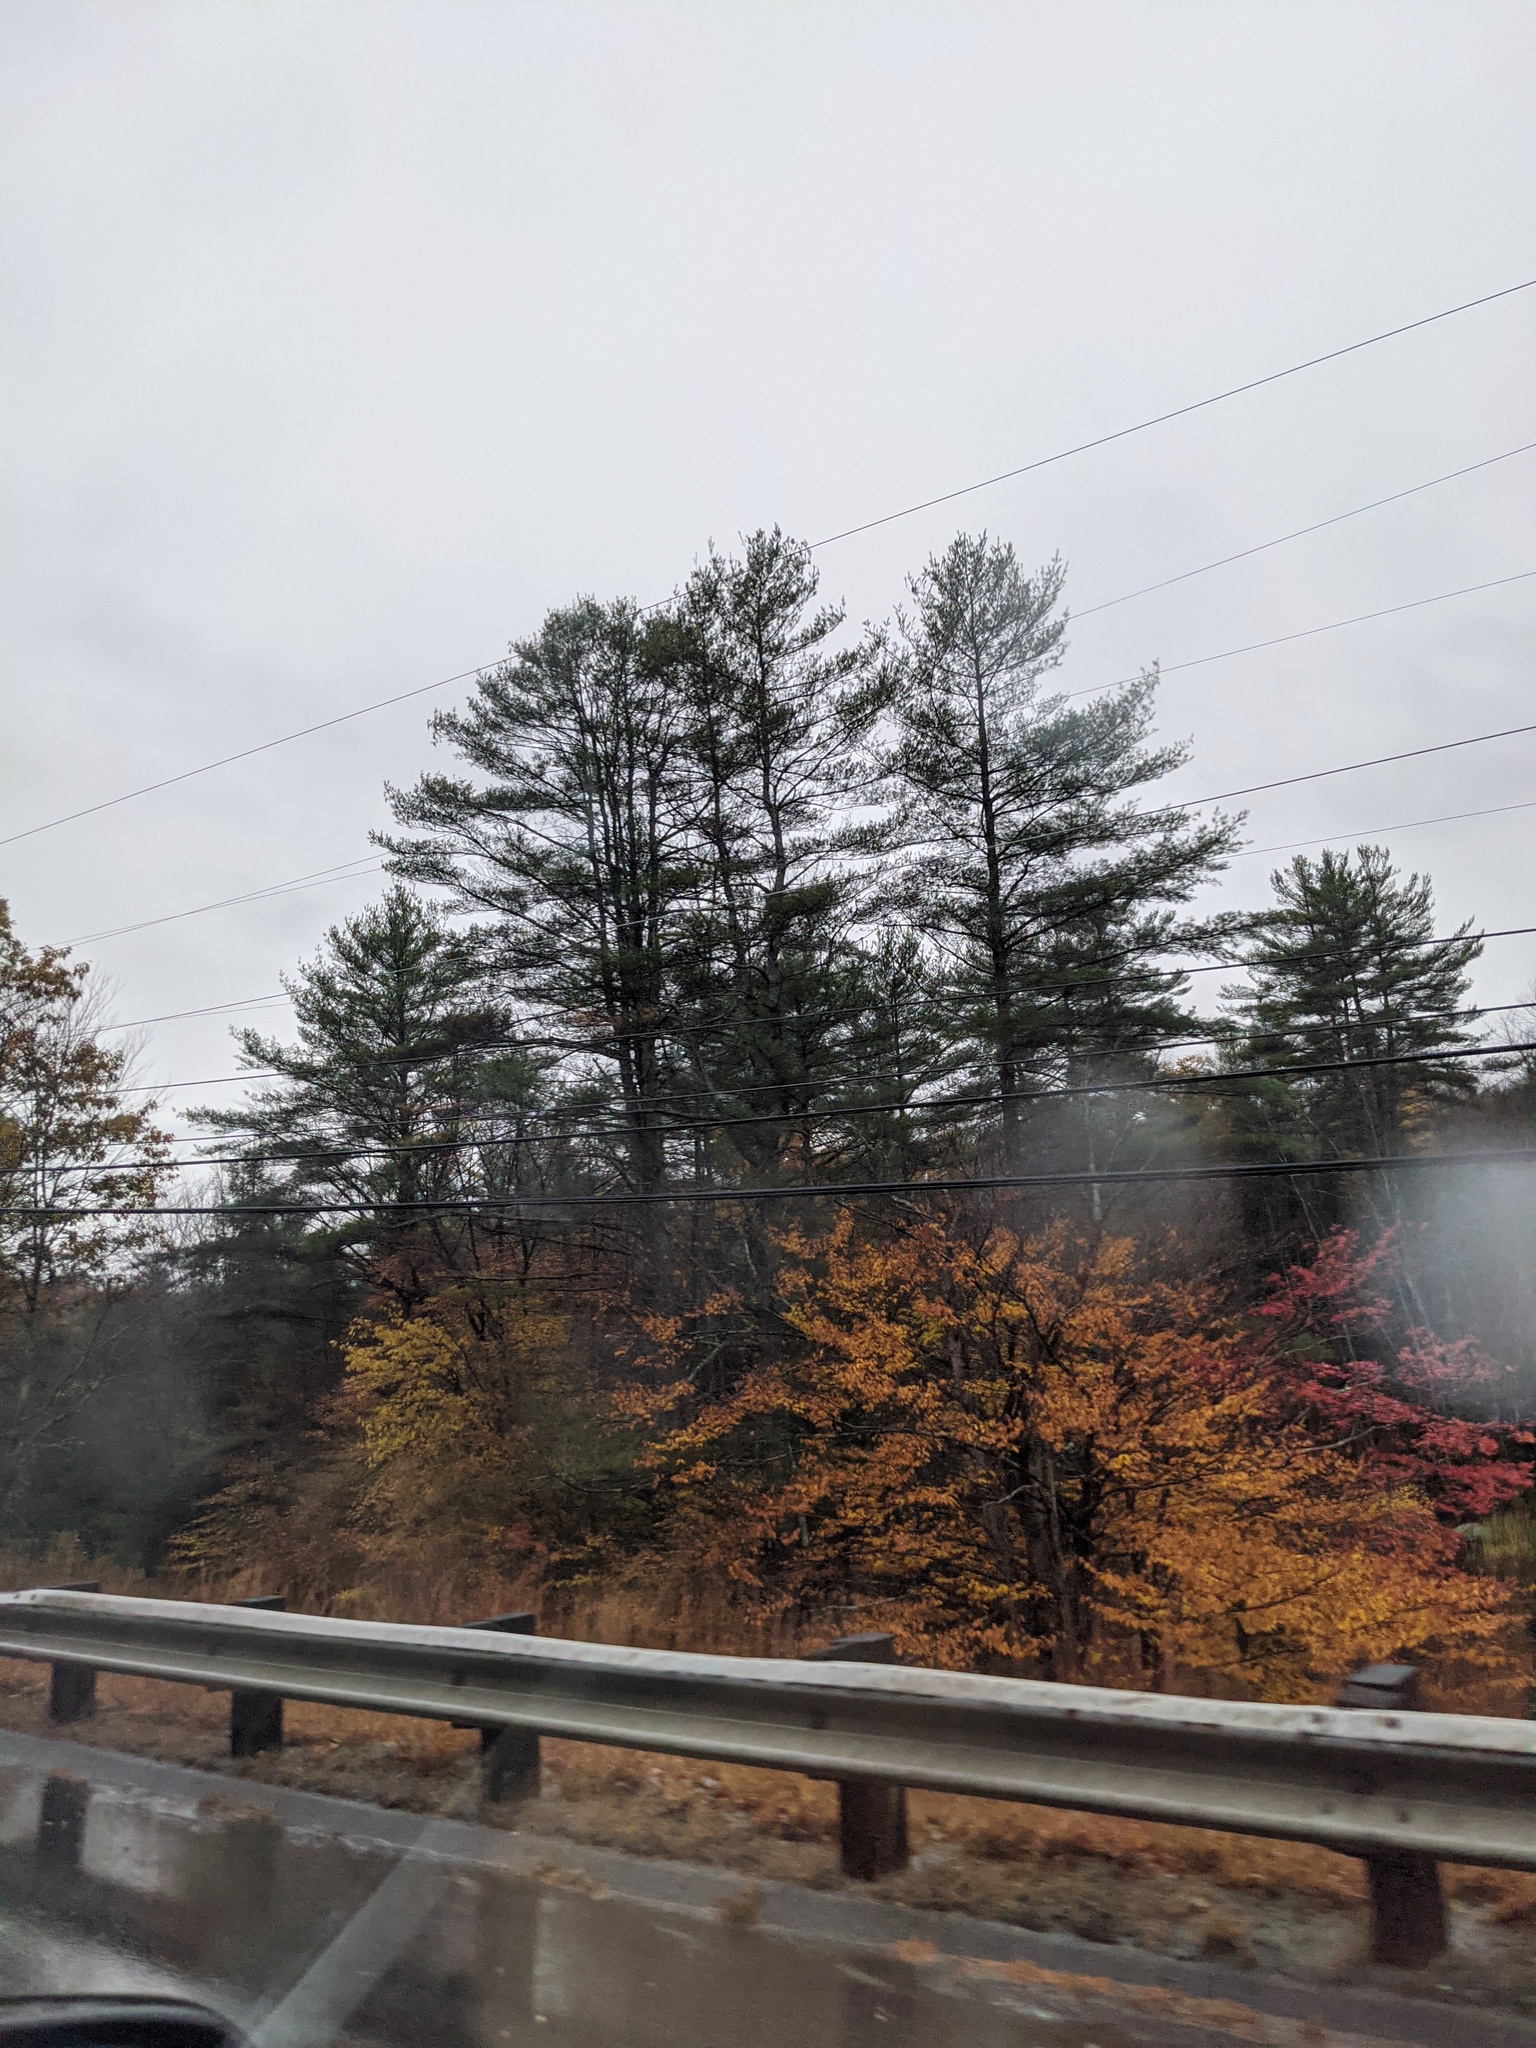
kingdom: Plantae
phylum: Tracheophyta
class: Pinopsida
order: Pinales
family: Pinaceae
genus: Pinus
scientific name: Pinus strobus
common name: Weymouth pine
